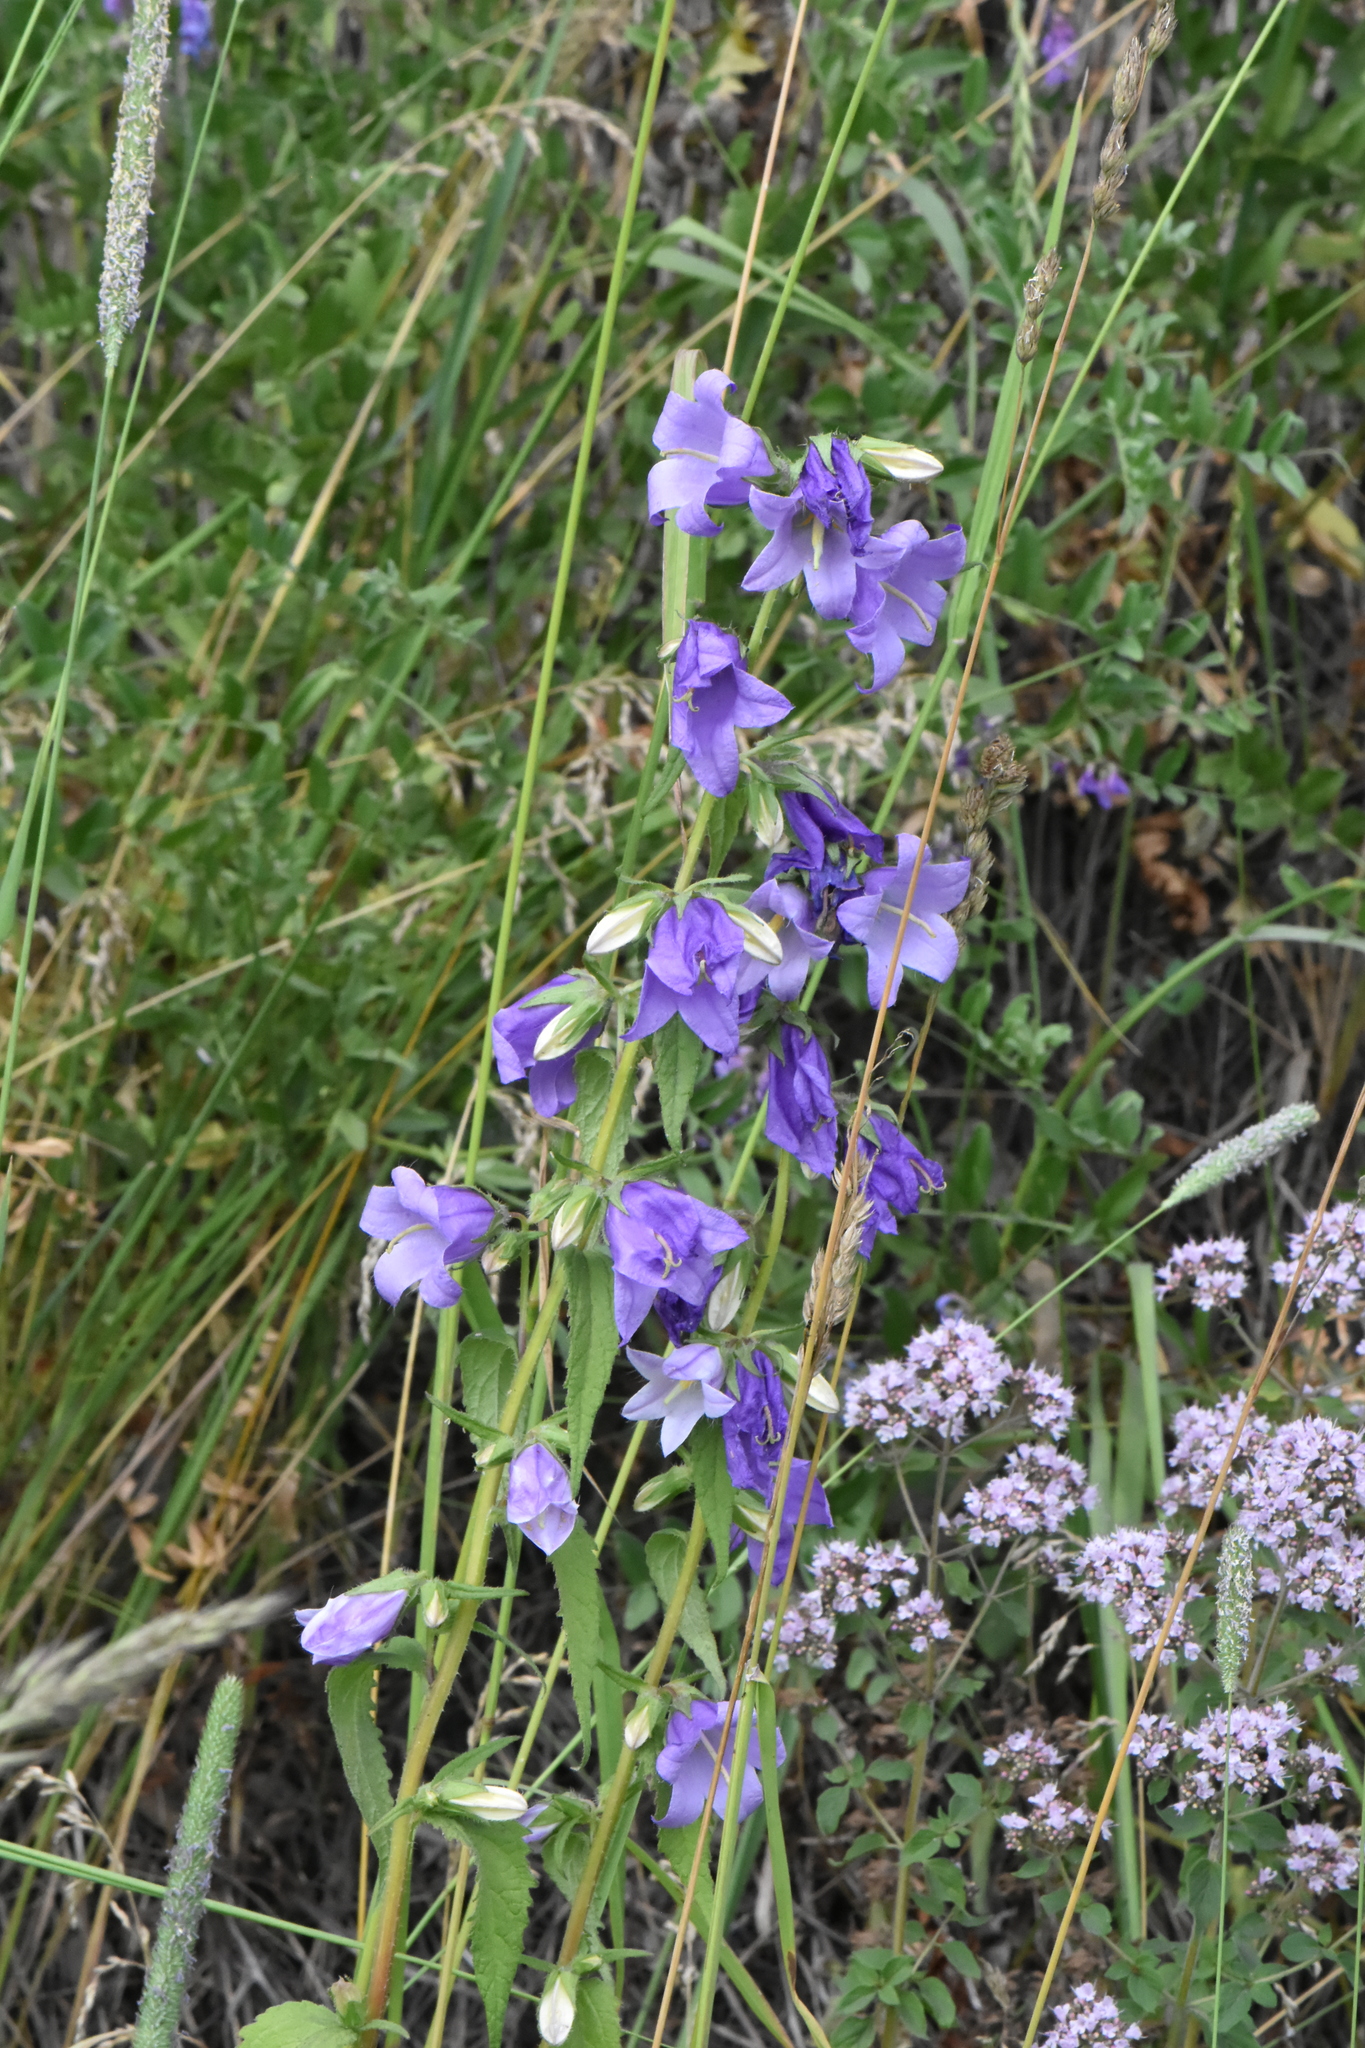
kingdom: Plantae
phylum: Tracheophyta
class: Magnoliopsida
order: Asterales
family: Campanulaceae
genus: Campanula
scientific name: Campanula trachelium
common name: Nettle-leaved bellflower
